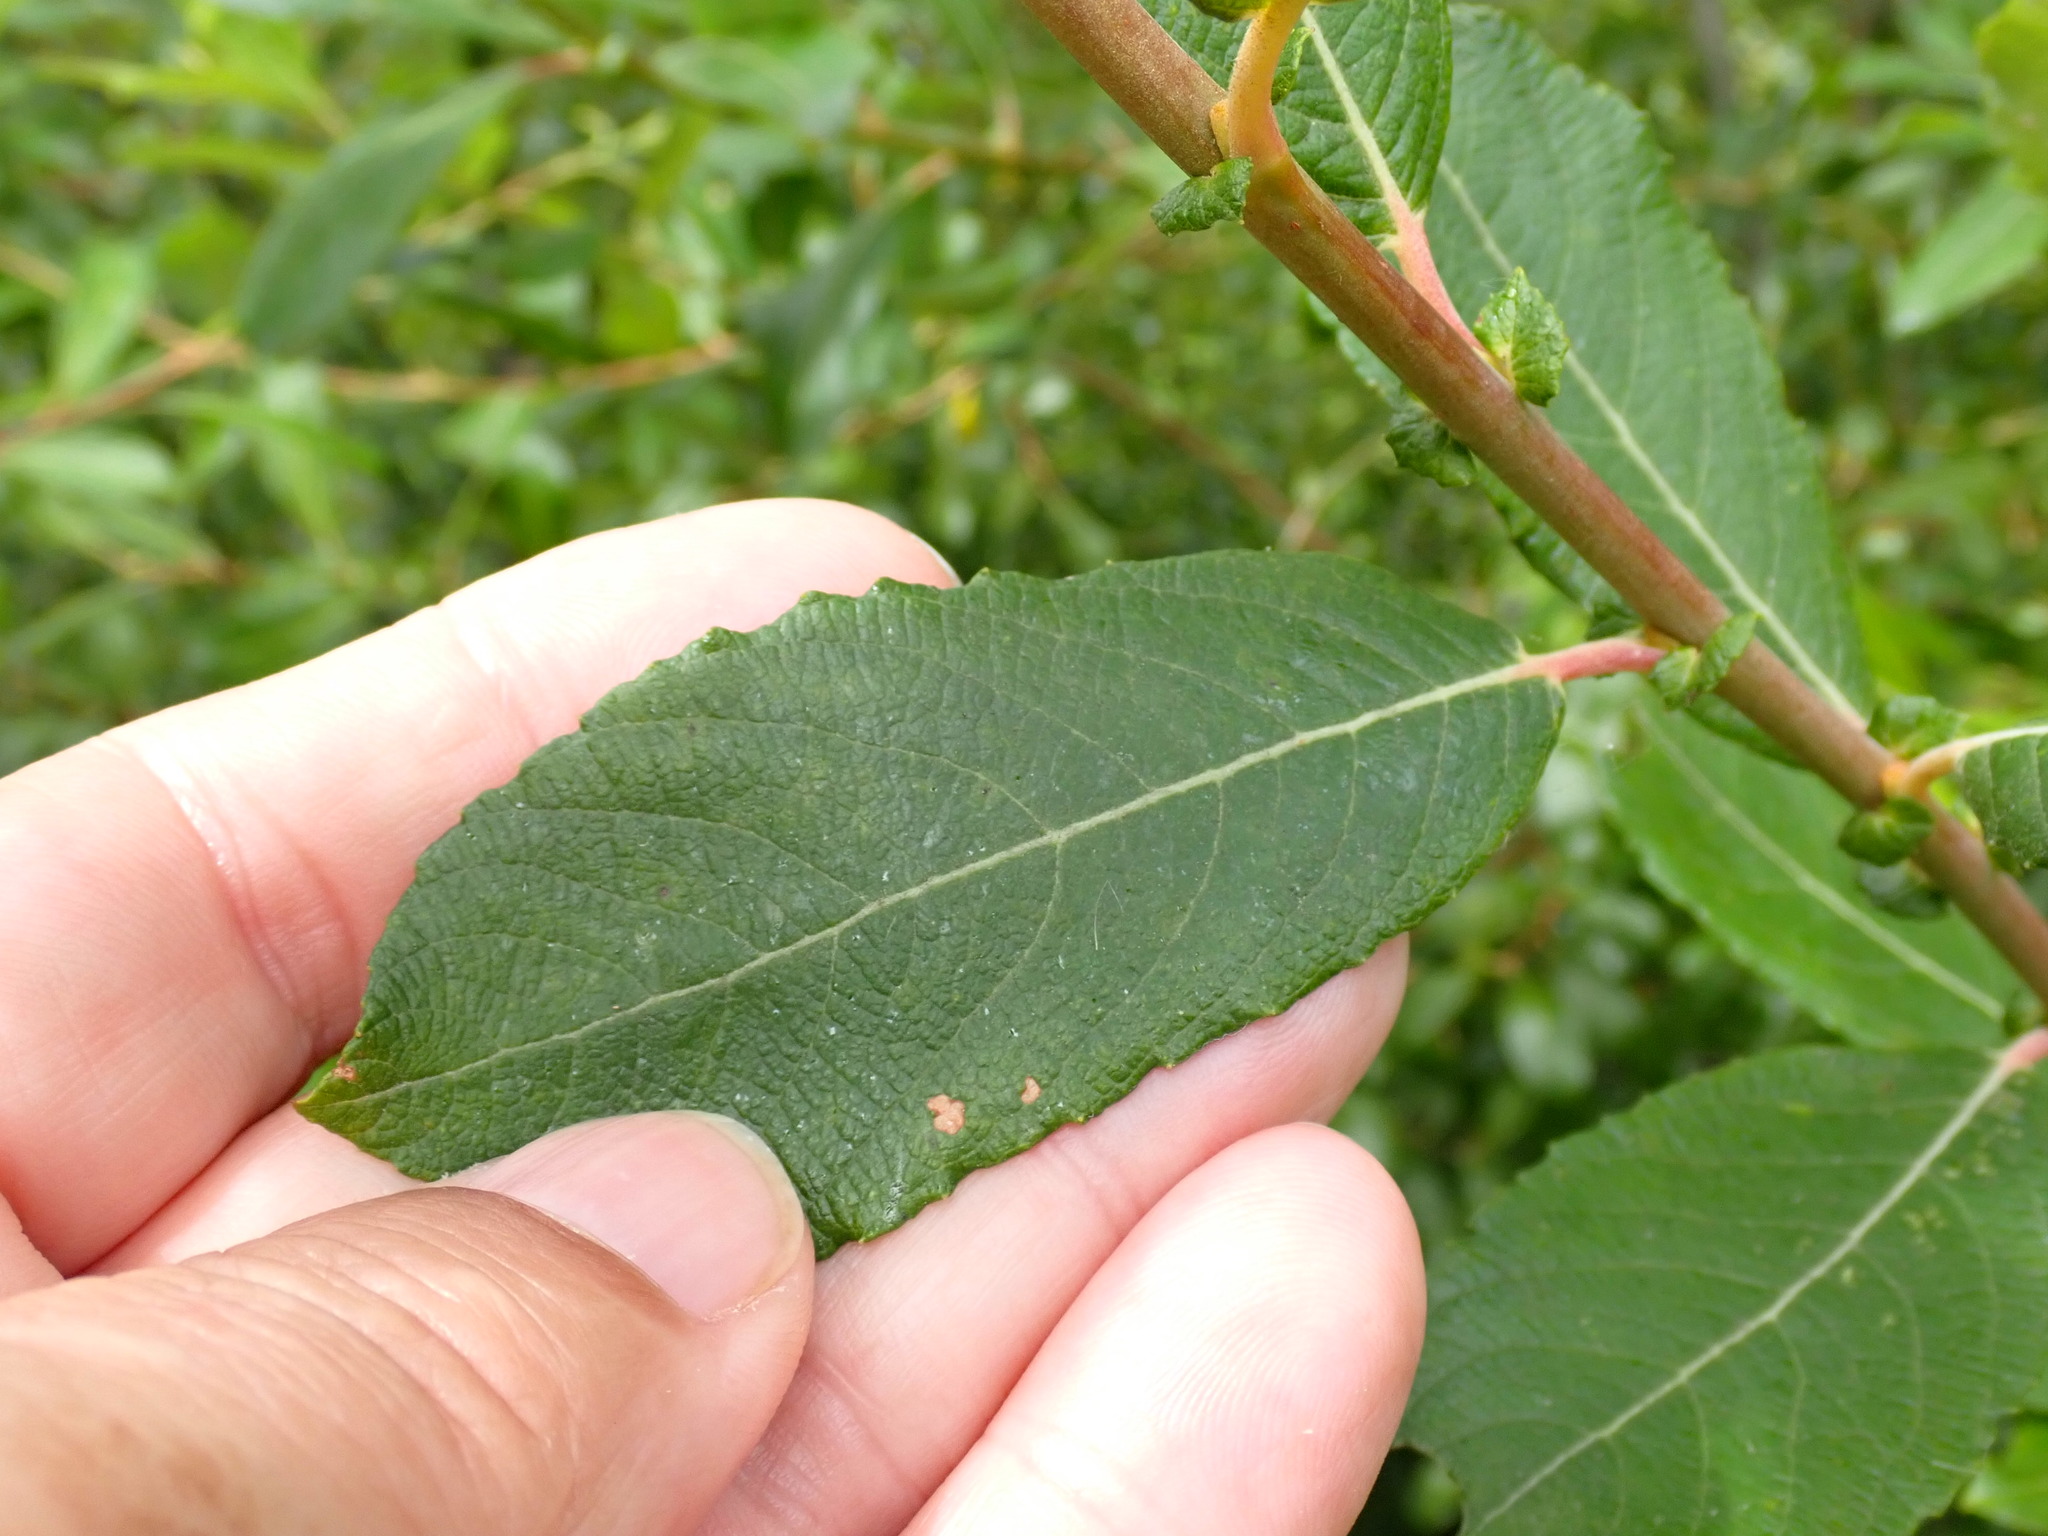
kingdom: Plantae
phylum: Tracheophyta
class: Magnoliopsida
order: Malpighiales
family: Salicaceae
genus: Salix
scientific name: Salix atrocinerea
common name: Rusty willow
